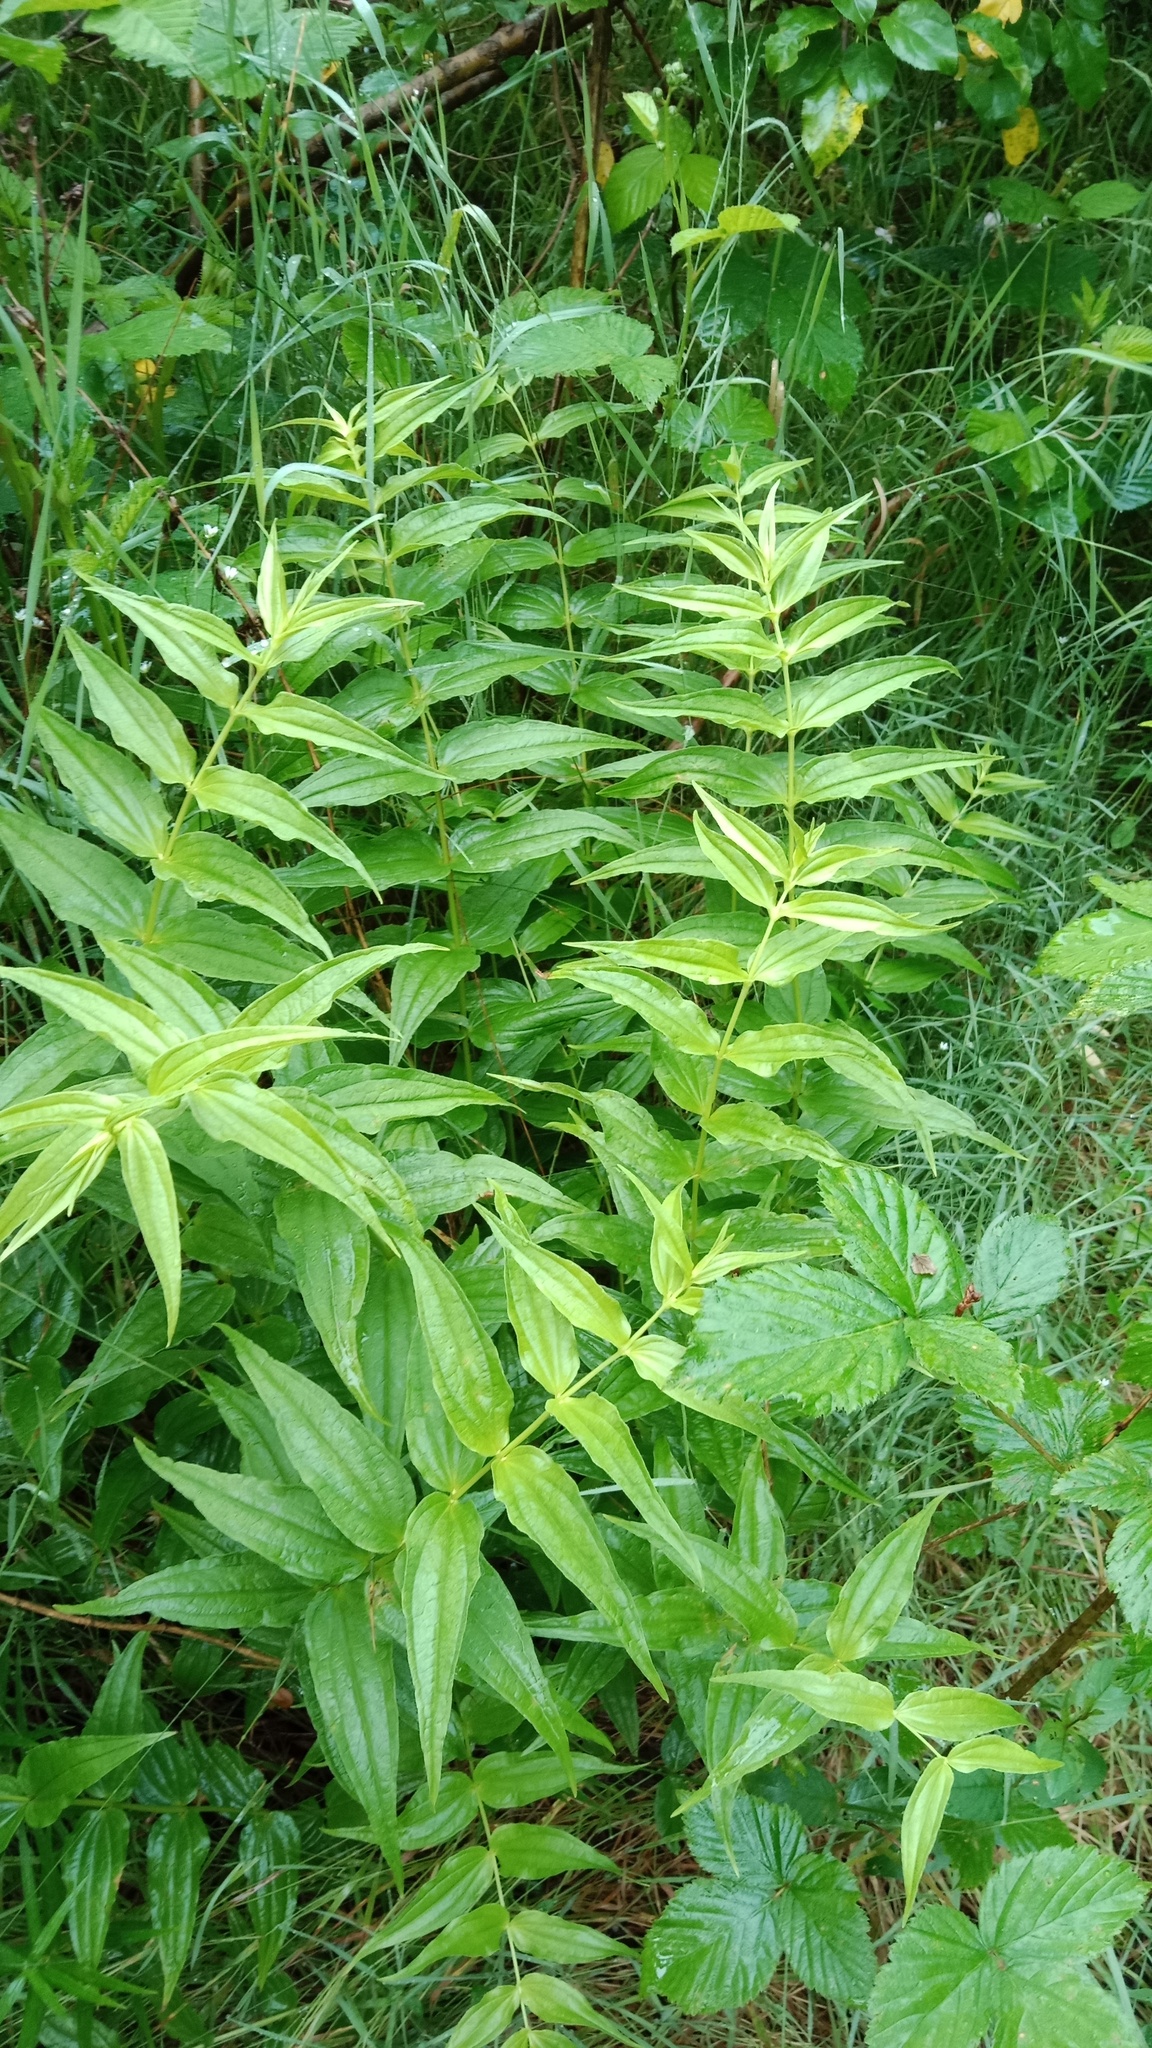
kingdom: Plantae
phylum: Tracheophyta
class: Magnoliopsida
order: Gentianales
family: Gentianaceae
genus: Gentiana
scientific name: Gentiana asclepiadea
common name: Willow gentian
